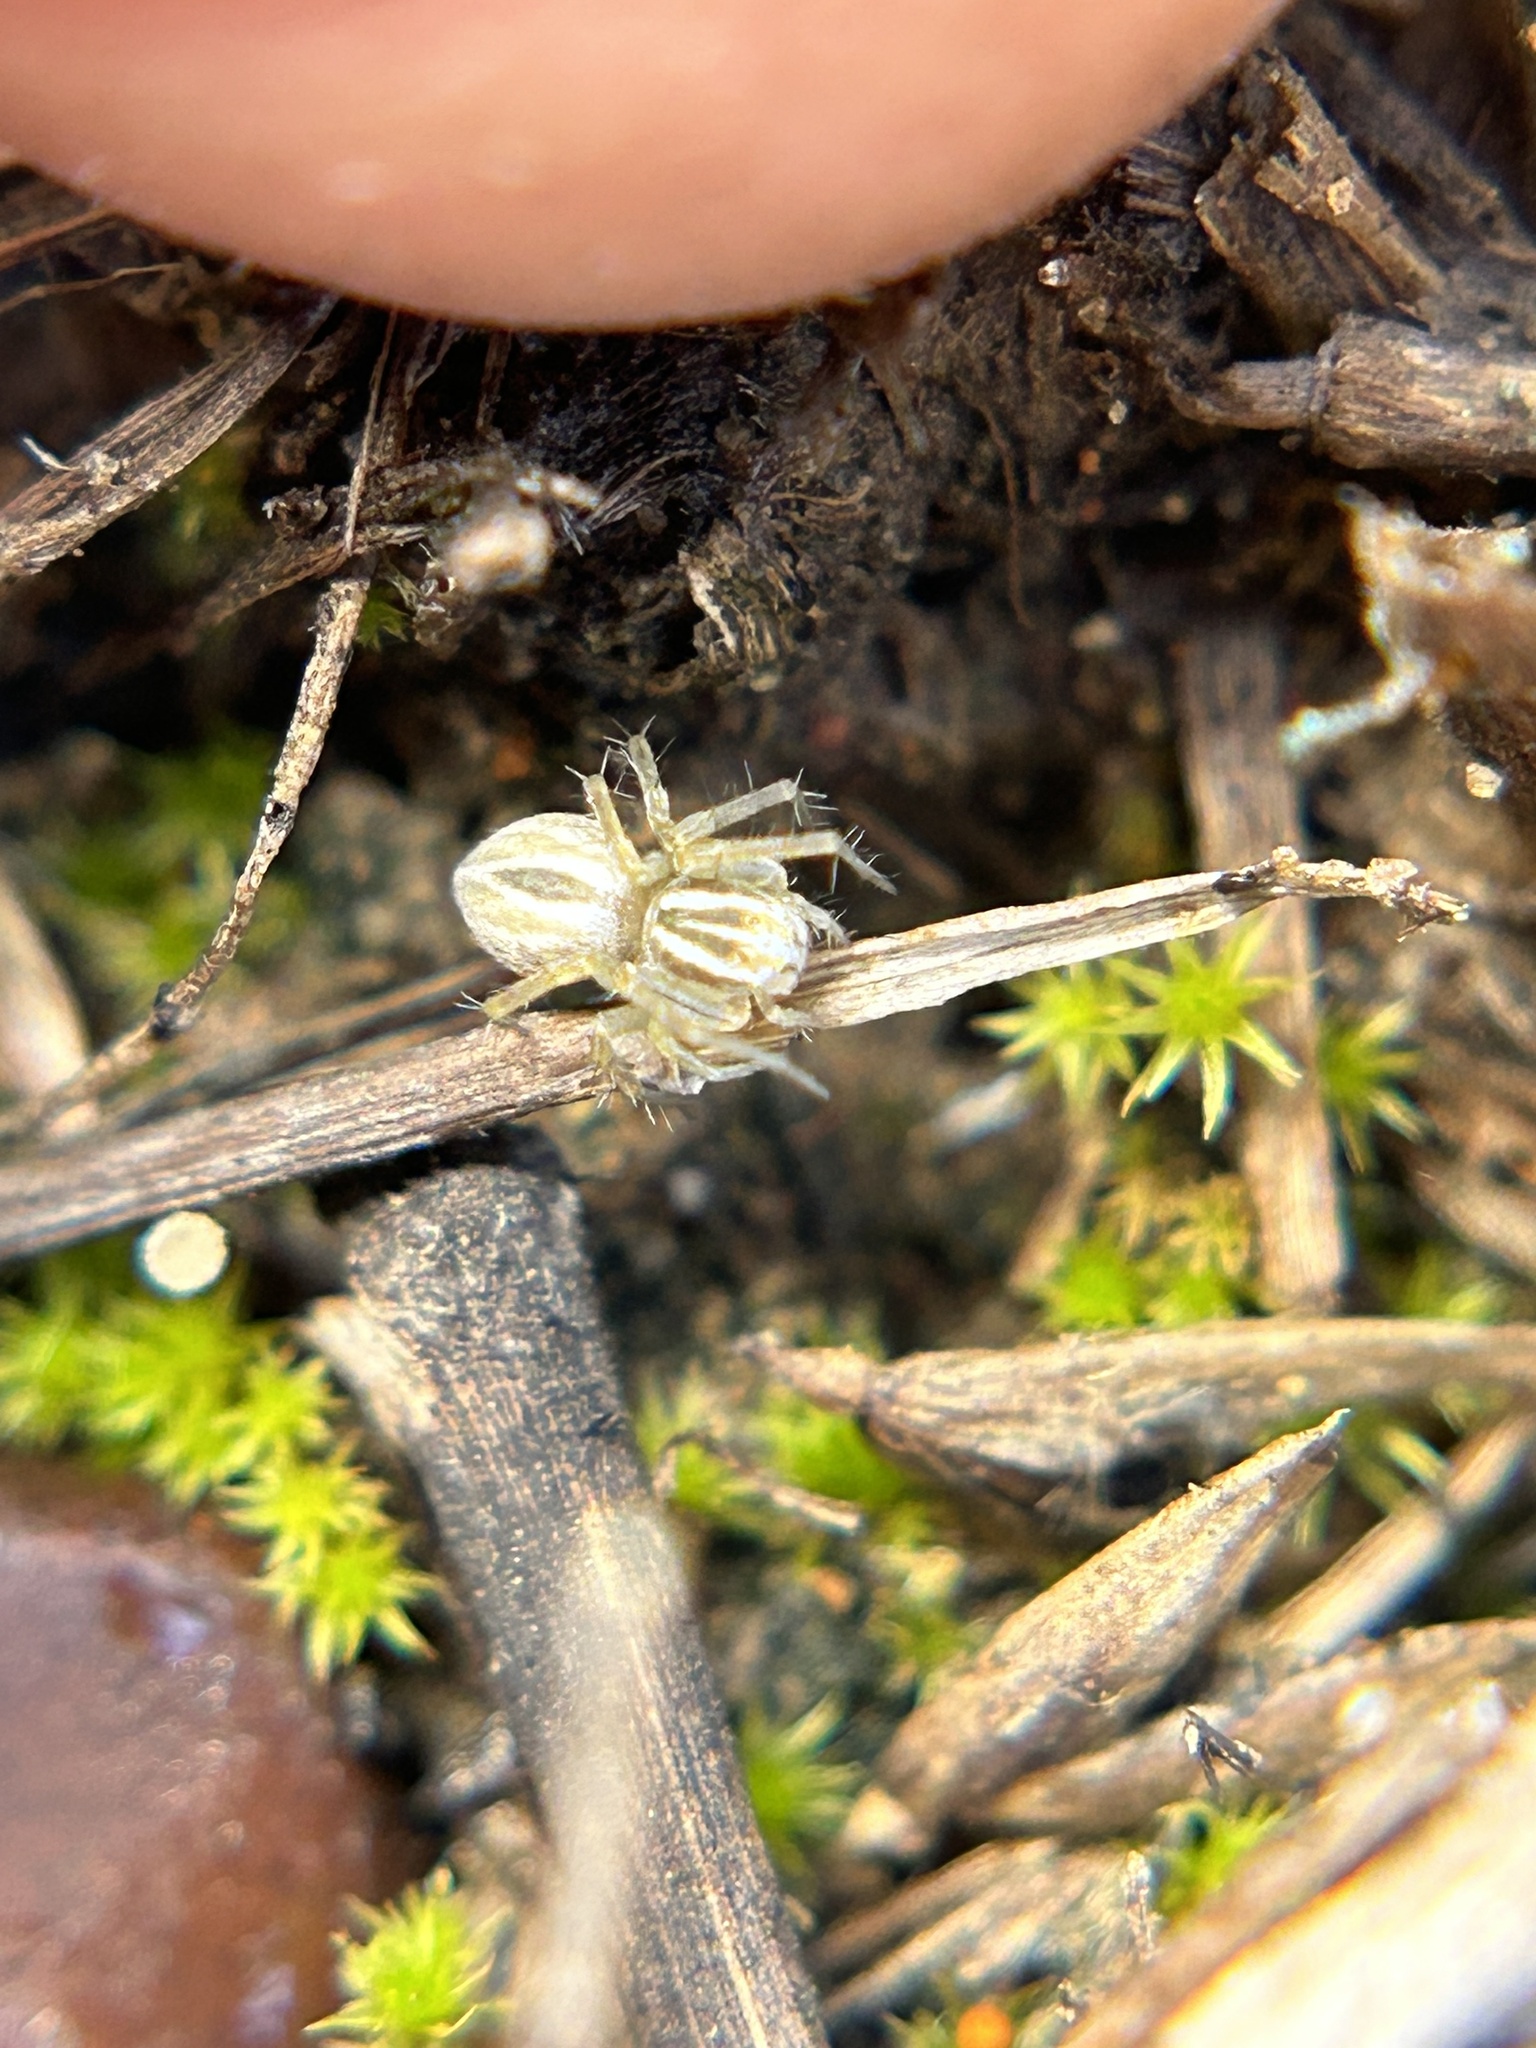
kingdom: Animalia
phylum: Arthropoda
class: Arachnida
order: Araneae
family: Oxyopidae
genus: Oxyopes
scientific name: Oxyopes salticus
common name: Lynx spiders
